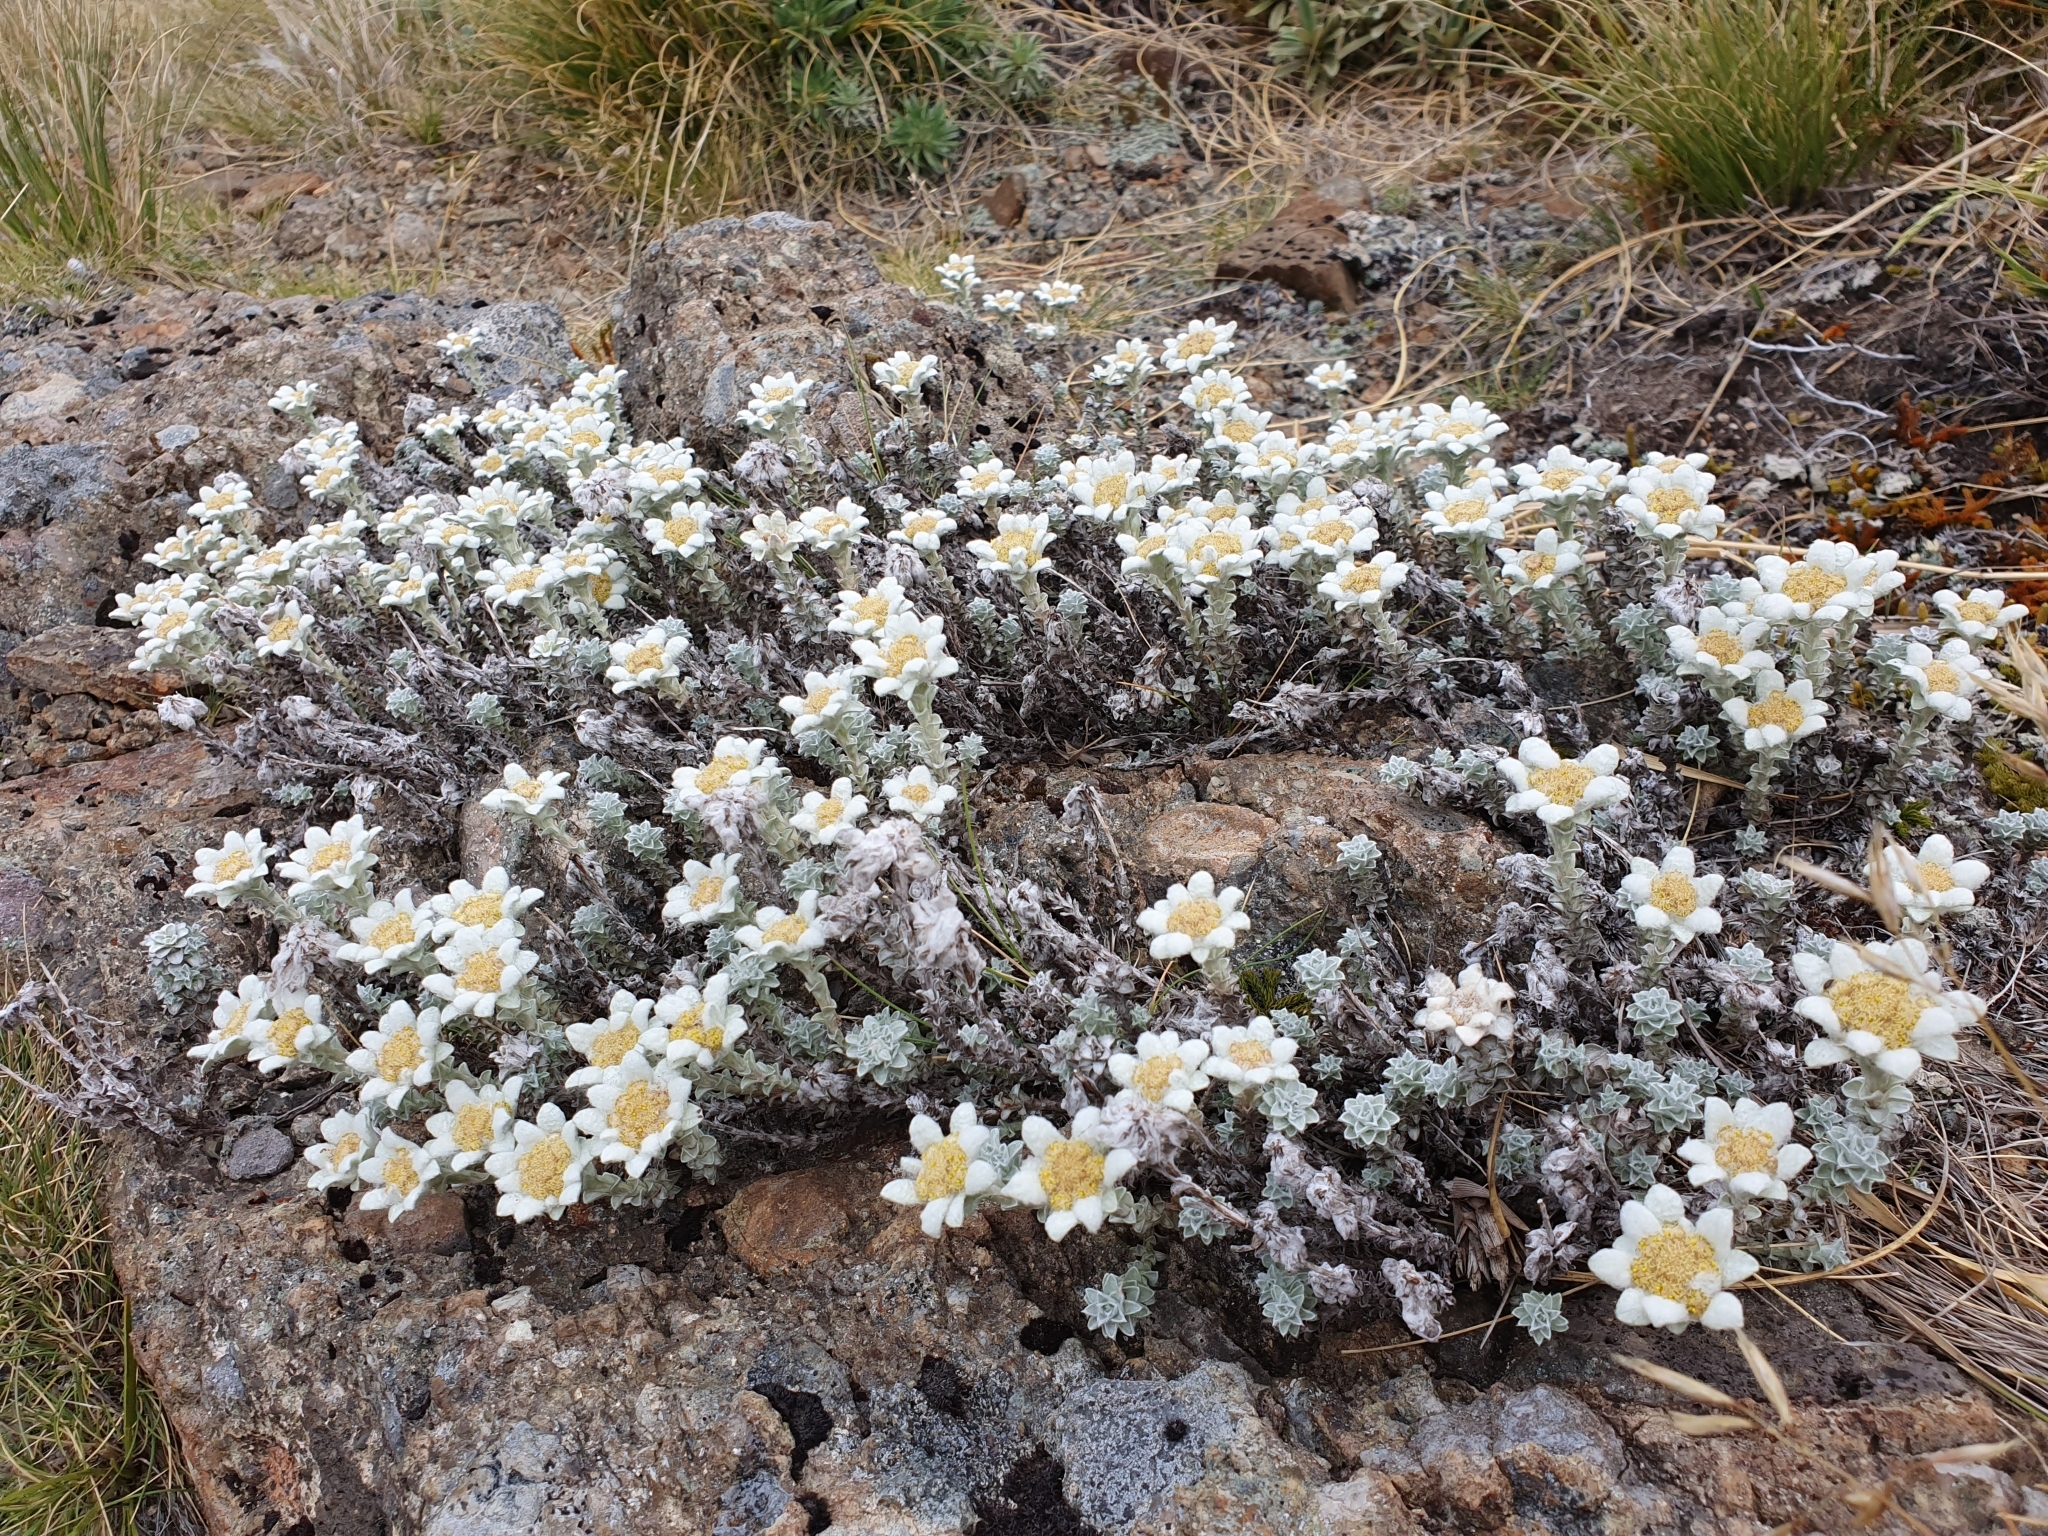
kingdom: Plantae
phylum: Tracheophyta
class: Magnoliopsida
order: Asterales
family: Asteraceae
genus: Leucogenes
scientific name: Leucogenes grandiceps
